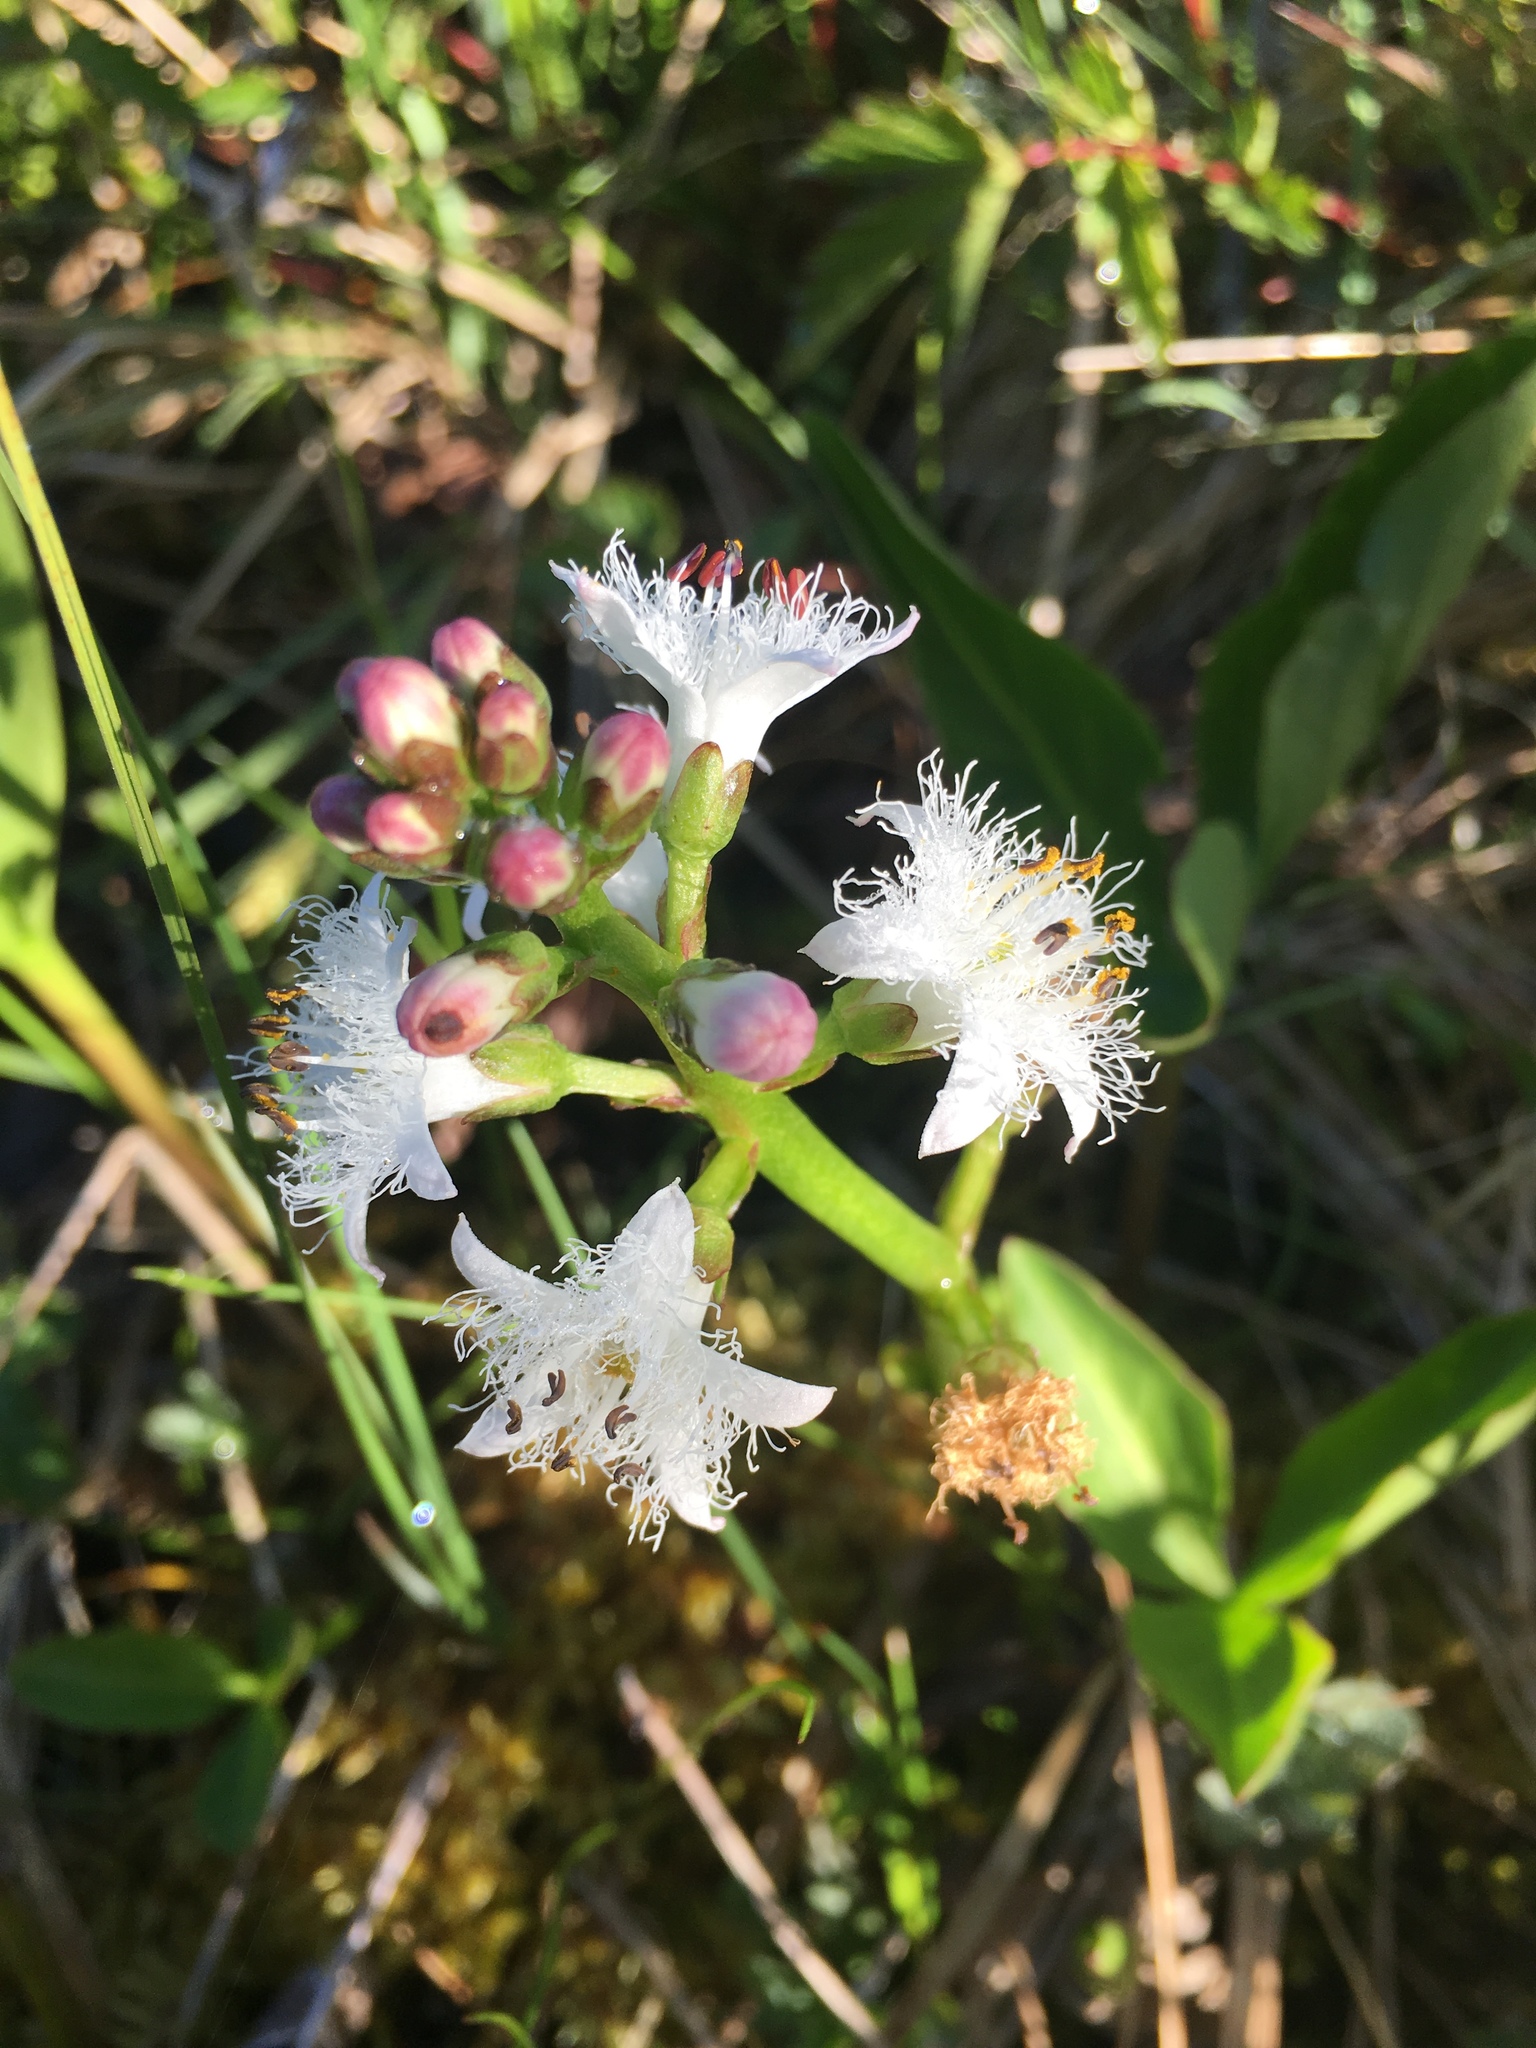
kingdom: Plantae
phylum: Tracheophyta
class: Magnoliopsida
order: Asterales
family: Menyanthaceae
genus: Menyanthes
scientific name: Menyanthes trifoliata
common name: Bogbean
